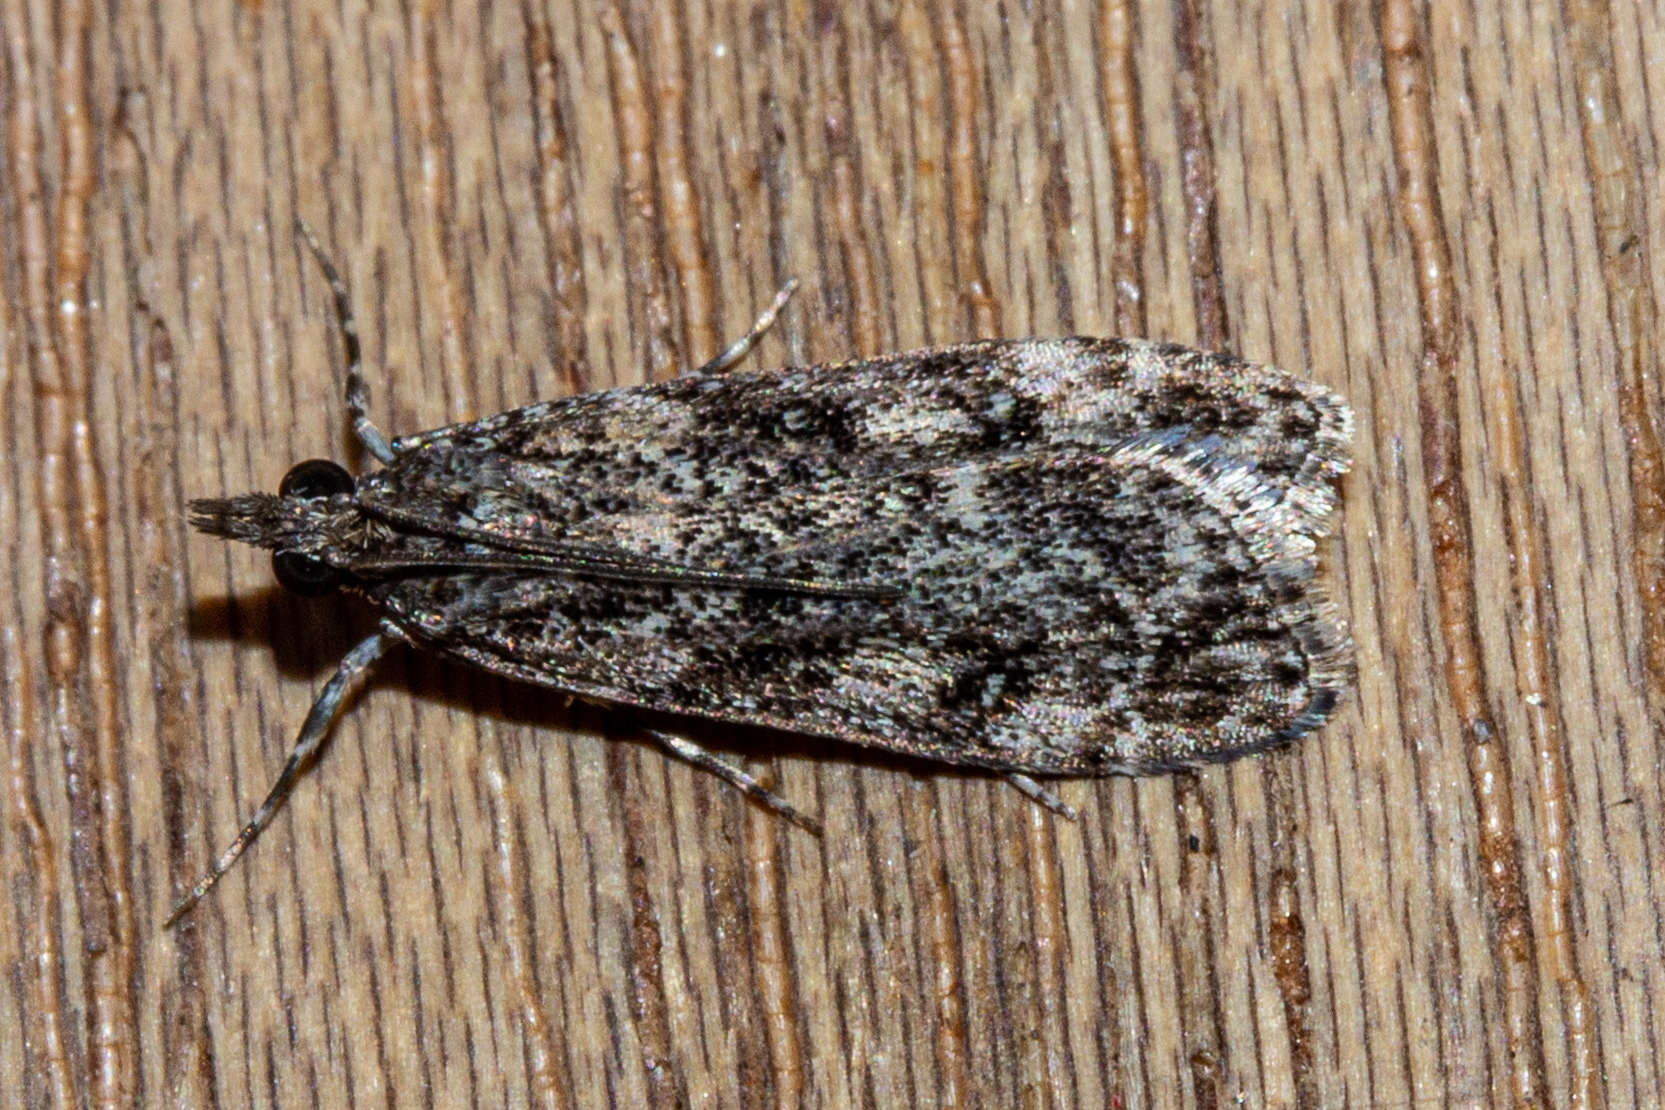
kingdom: Animalia
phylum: Arthropoda
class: Insecta
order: Lepidoptera
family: Crambidae
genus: Eudonia
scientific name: Eudonia philerga
